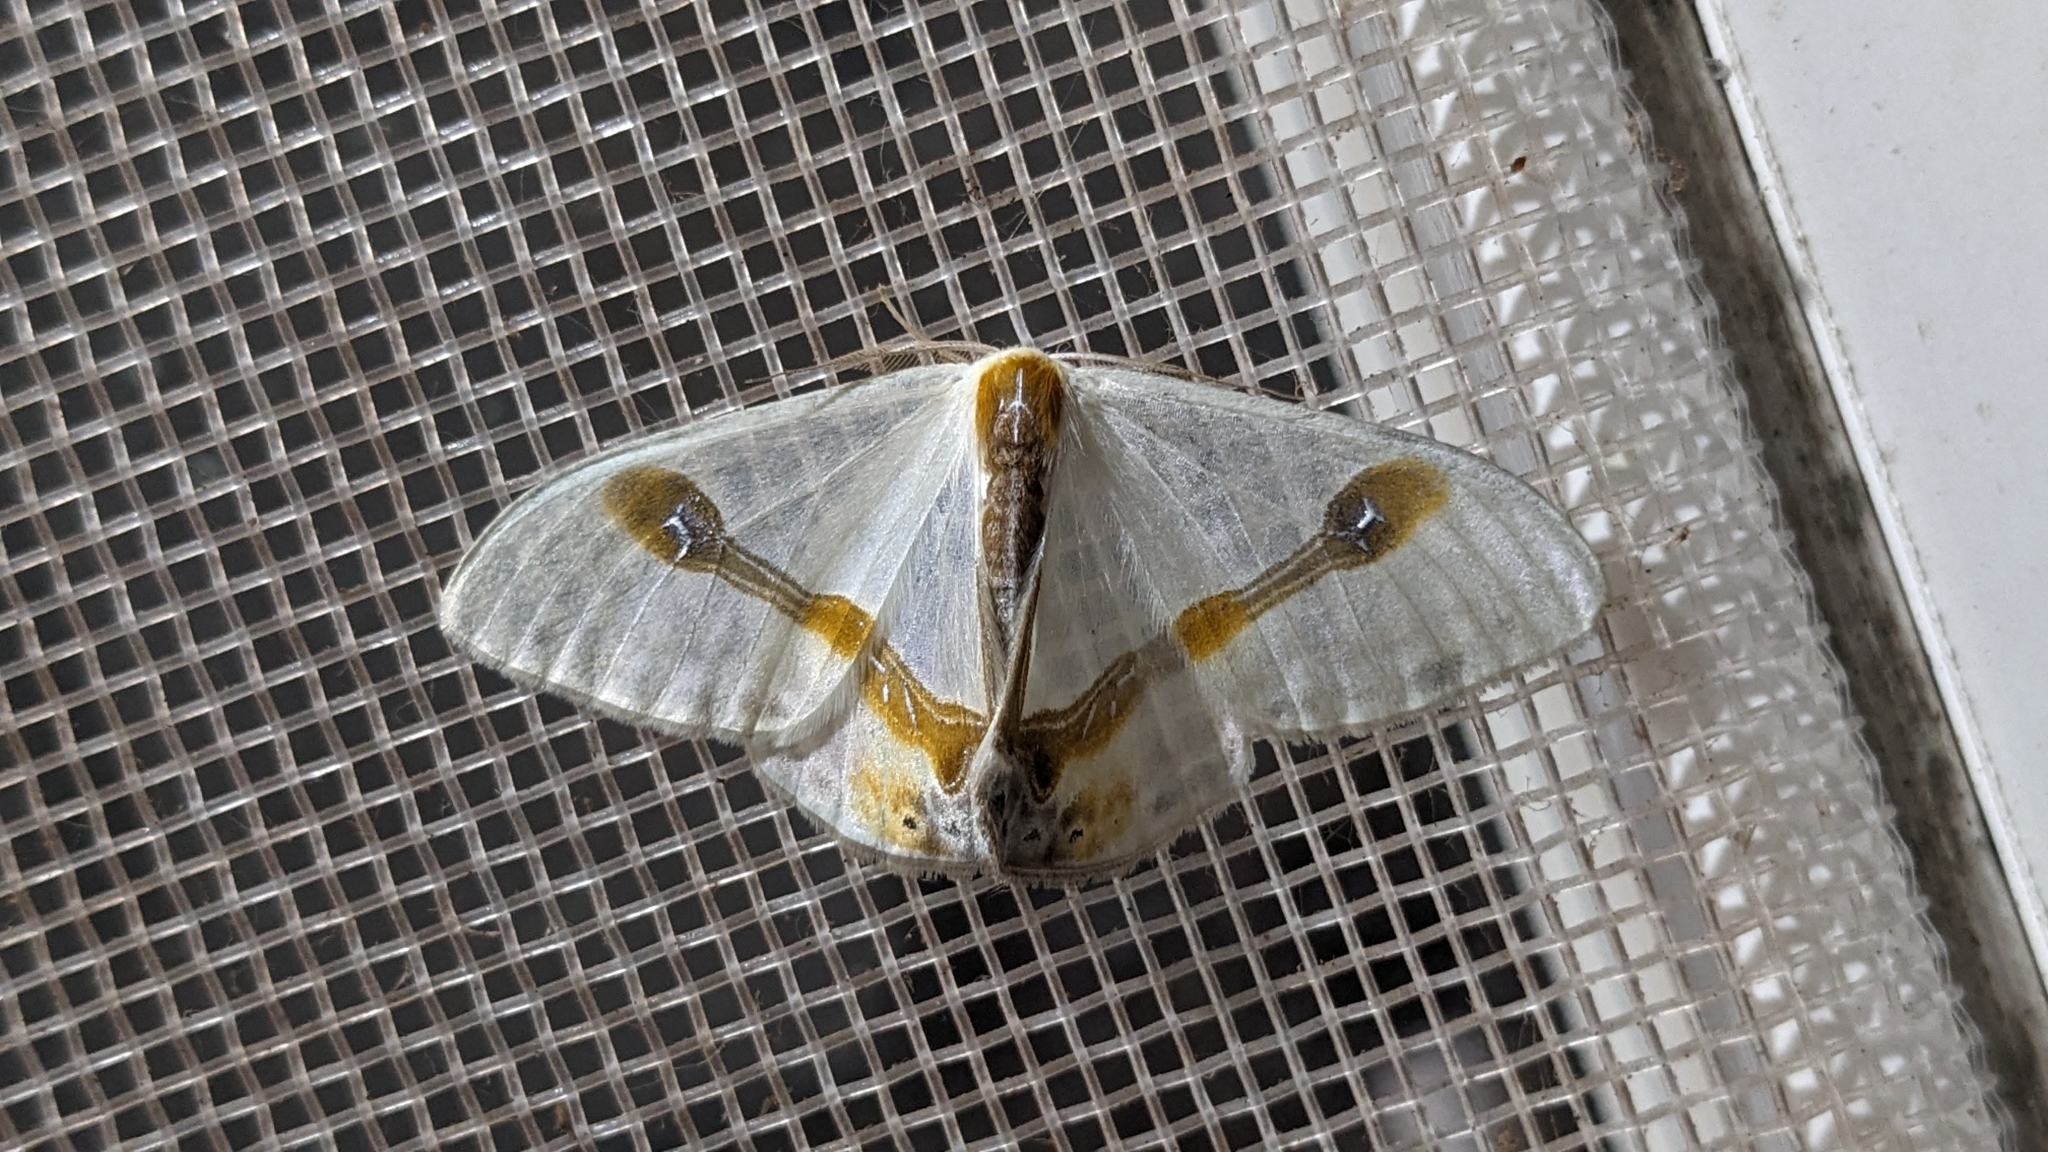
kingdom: Animalia
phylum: Arthropoda
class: Insecta
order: Lepidoptera
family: Drepanidae
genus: Macrocilix
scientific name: Macrocilix mysticata
